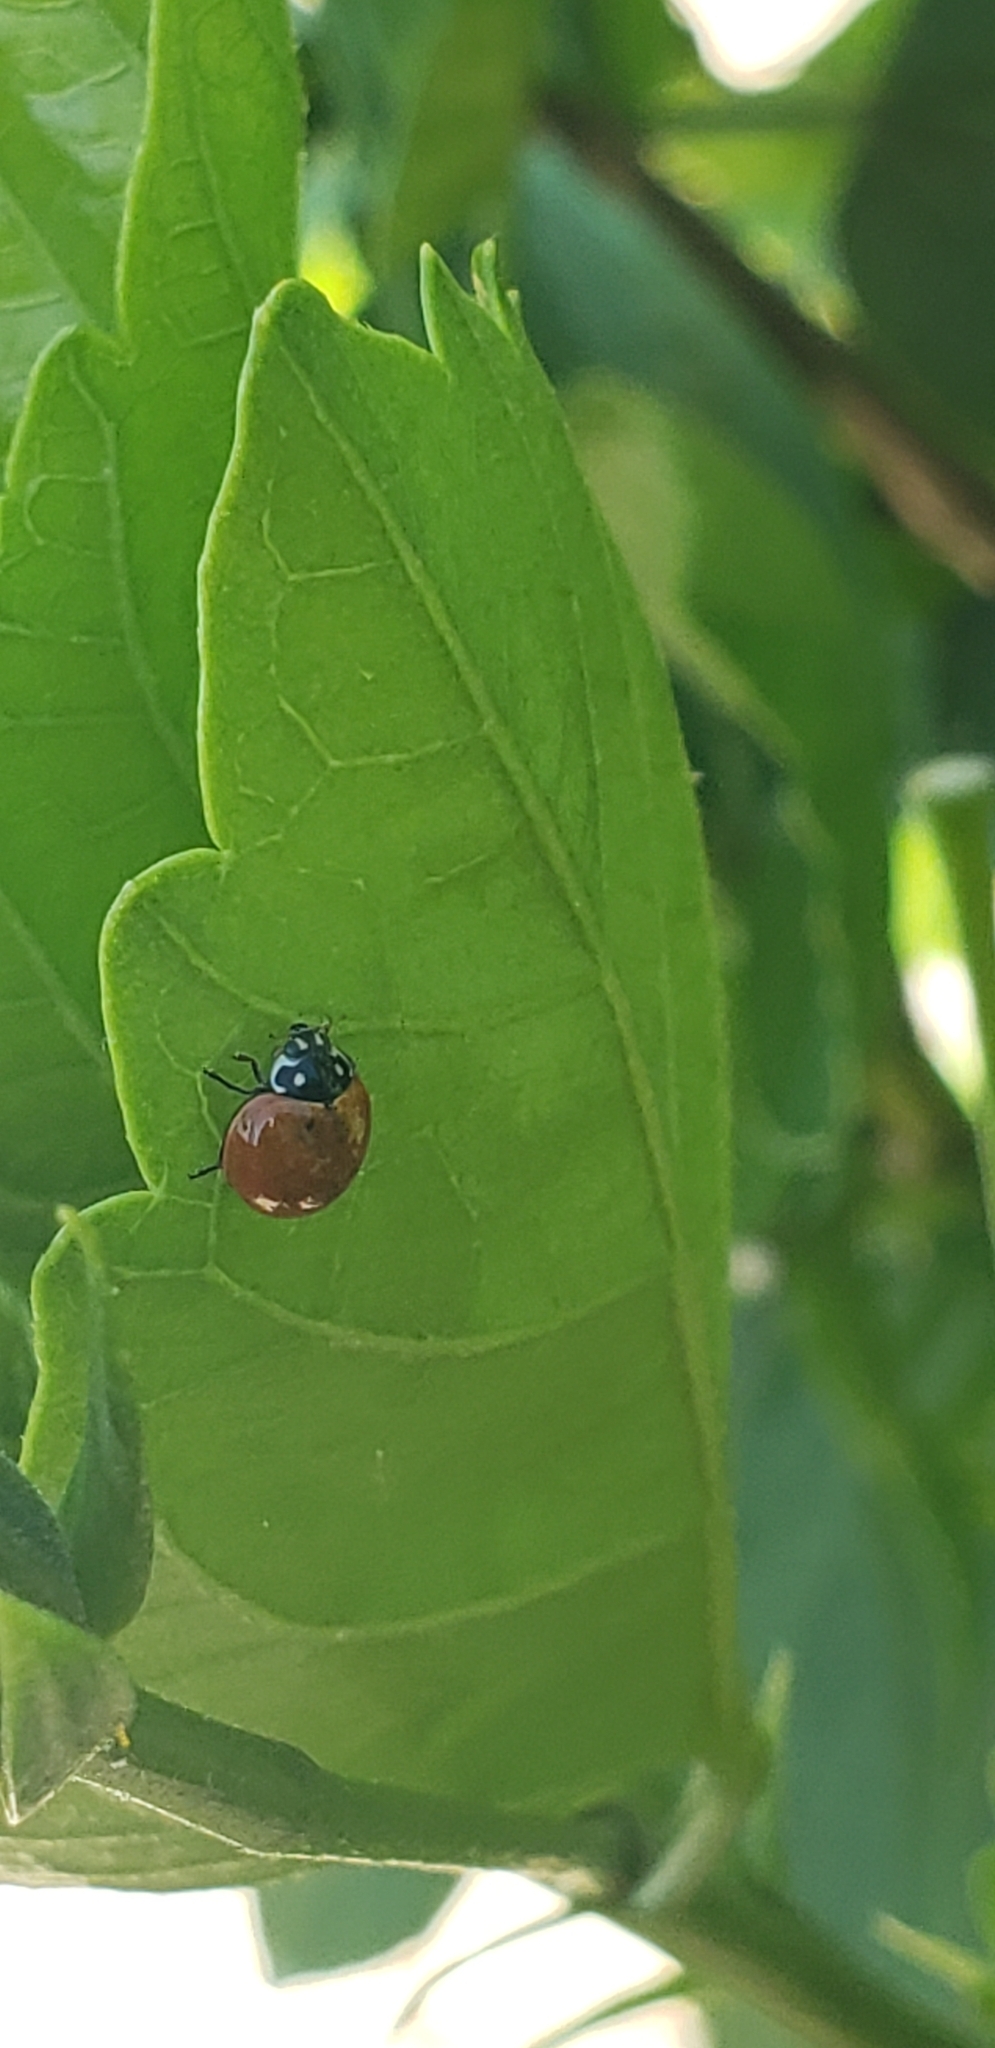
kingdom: Animalia
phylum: Arthropoda
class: Insecta
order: Coleoptera
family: Coccinellidae
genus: Cycloneda
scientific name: Cycloneda sanguinea
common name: Ladybird beetle
